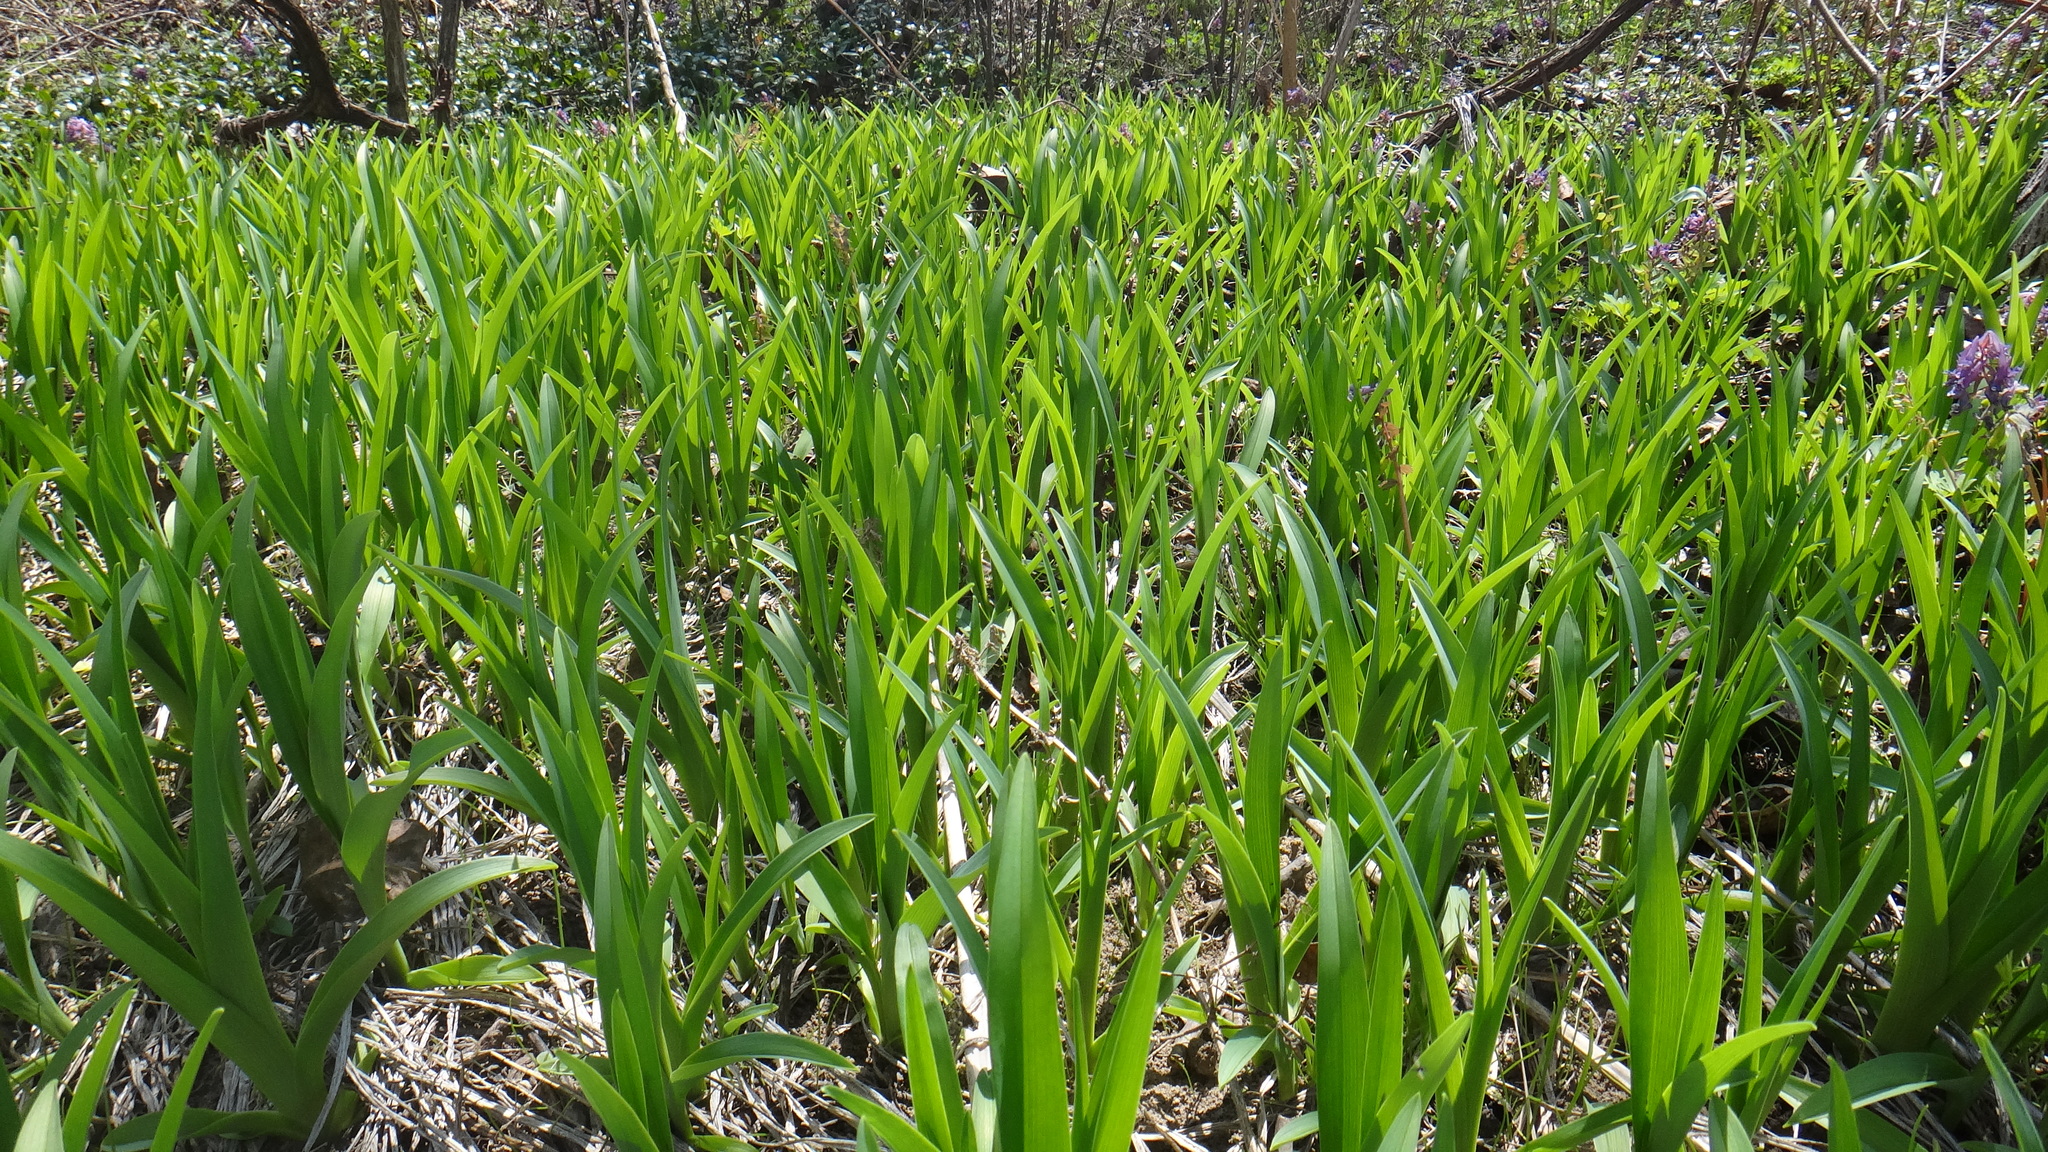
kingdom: Plantae
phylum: Tracheophyta
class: Liliopsida
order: Asparagales
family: Asphodelaceae
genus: Hemerocallis
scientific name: Hemerocallis fulva
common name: Orange day-lily
